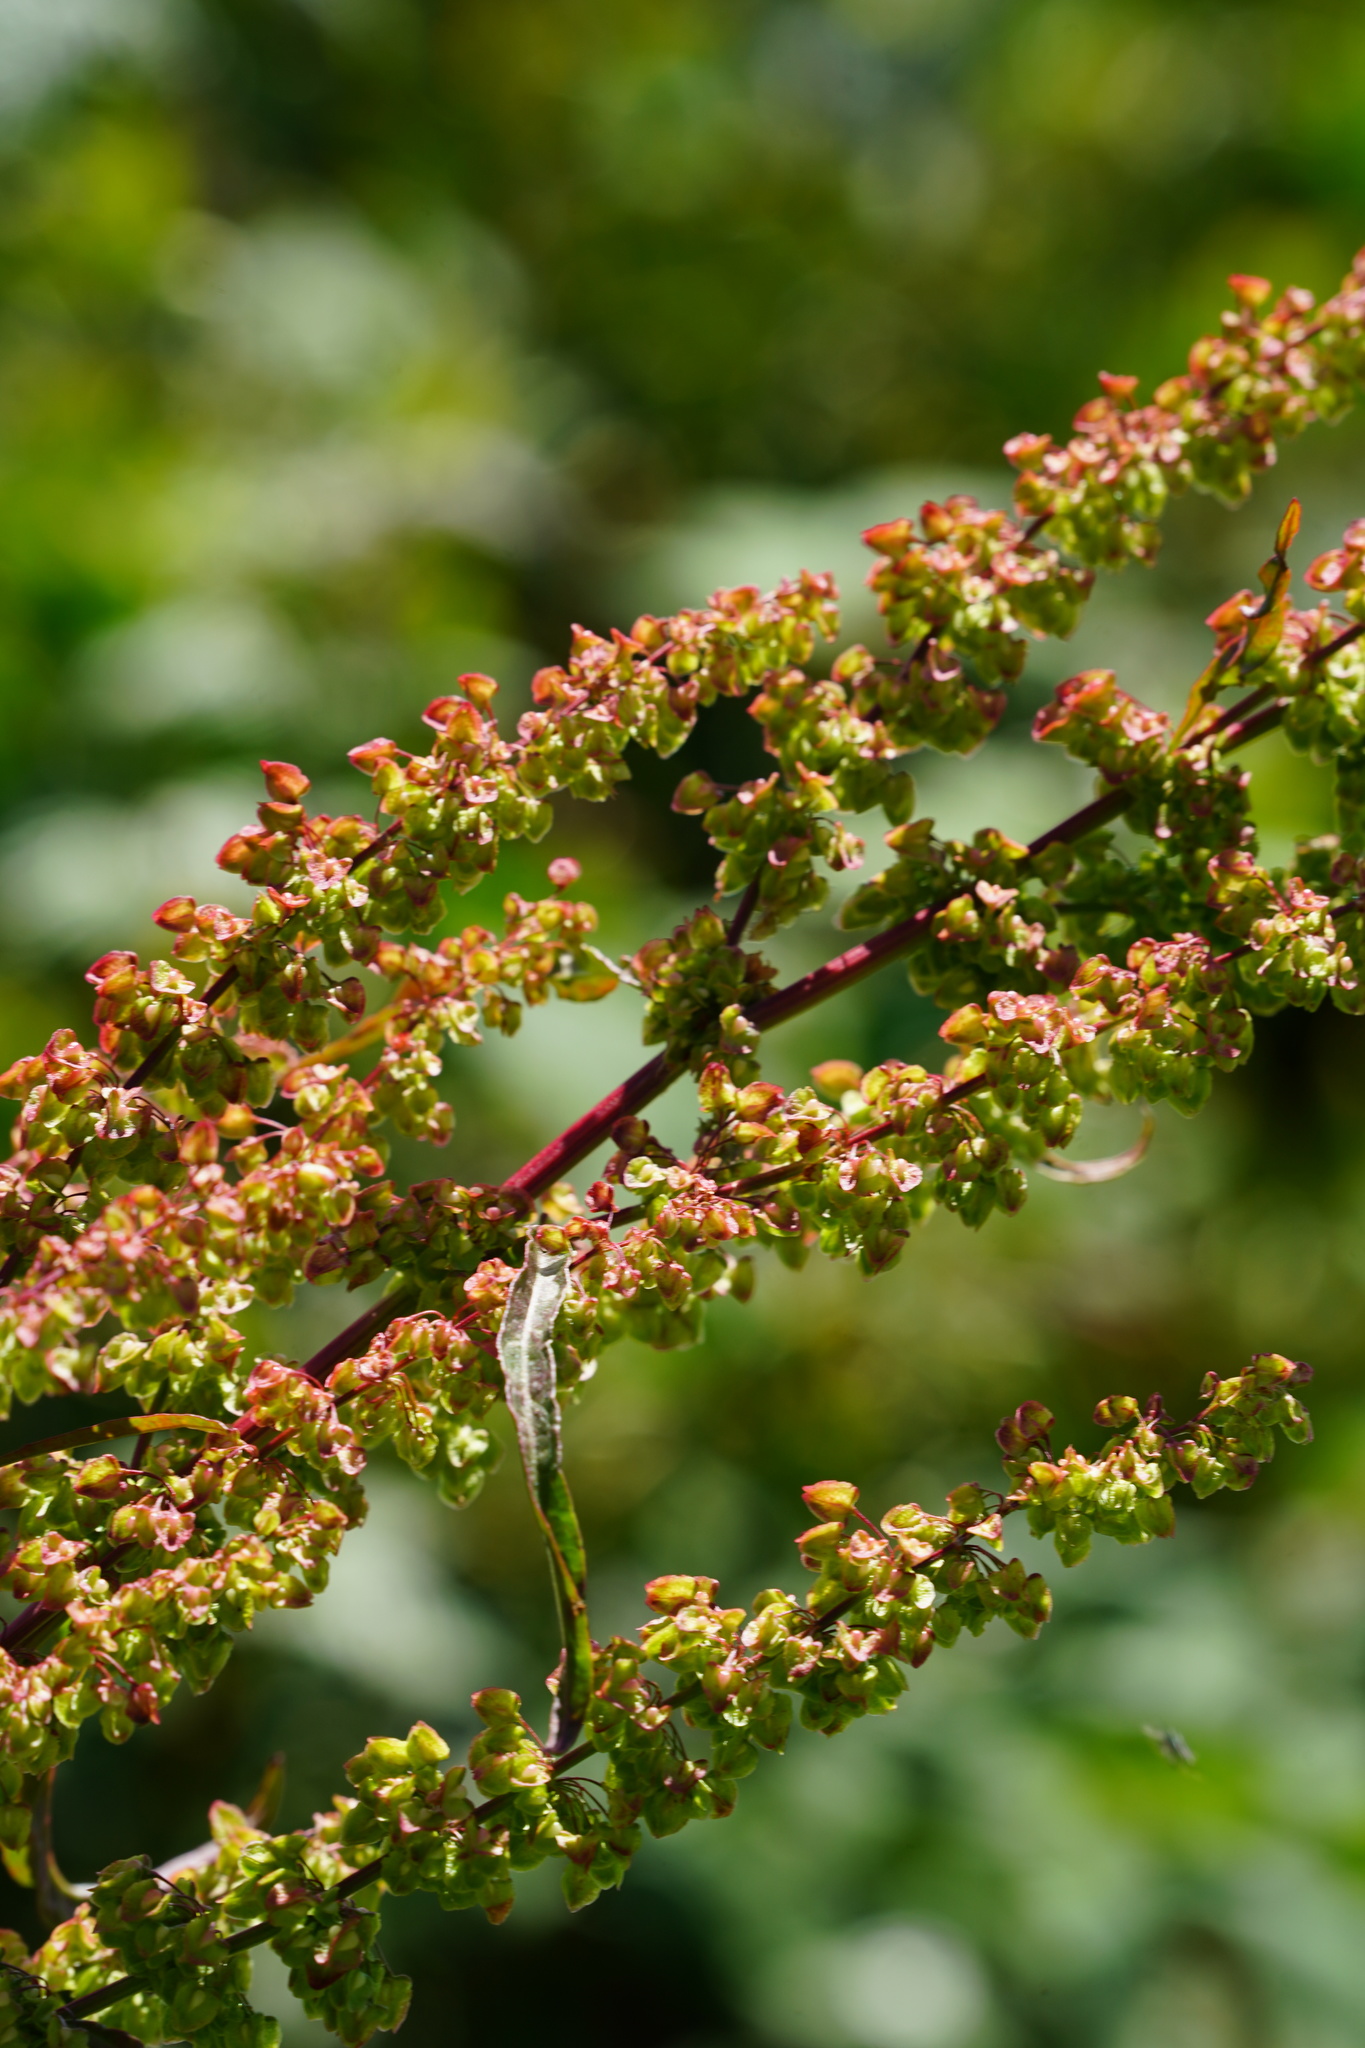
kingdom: Plantae
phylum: Tracheophyta
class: Magnoliopsida
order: Caryophyllales
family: Polygonaceae
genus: Rumex
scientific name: Rumex crispus
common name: Curled dock
